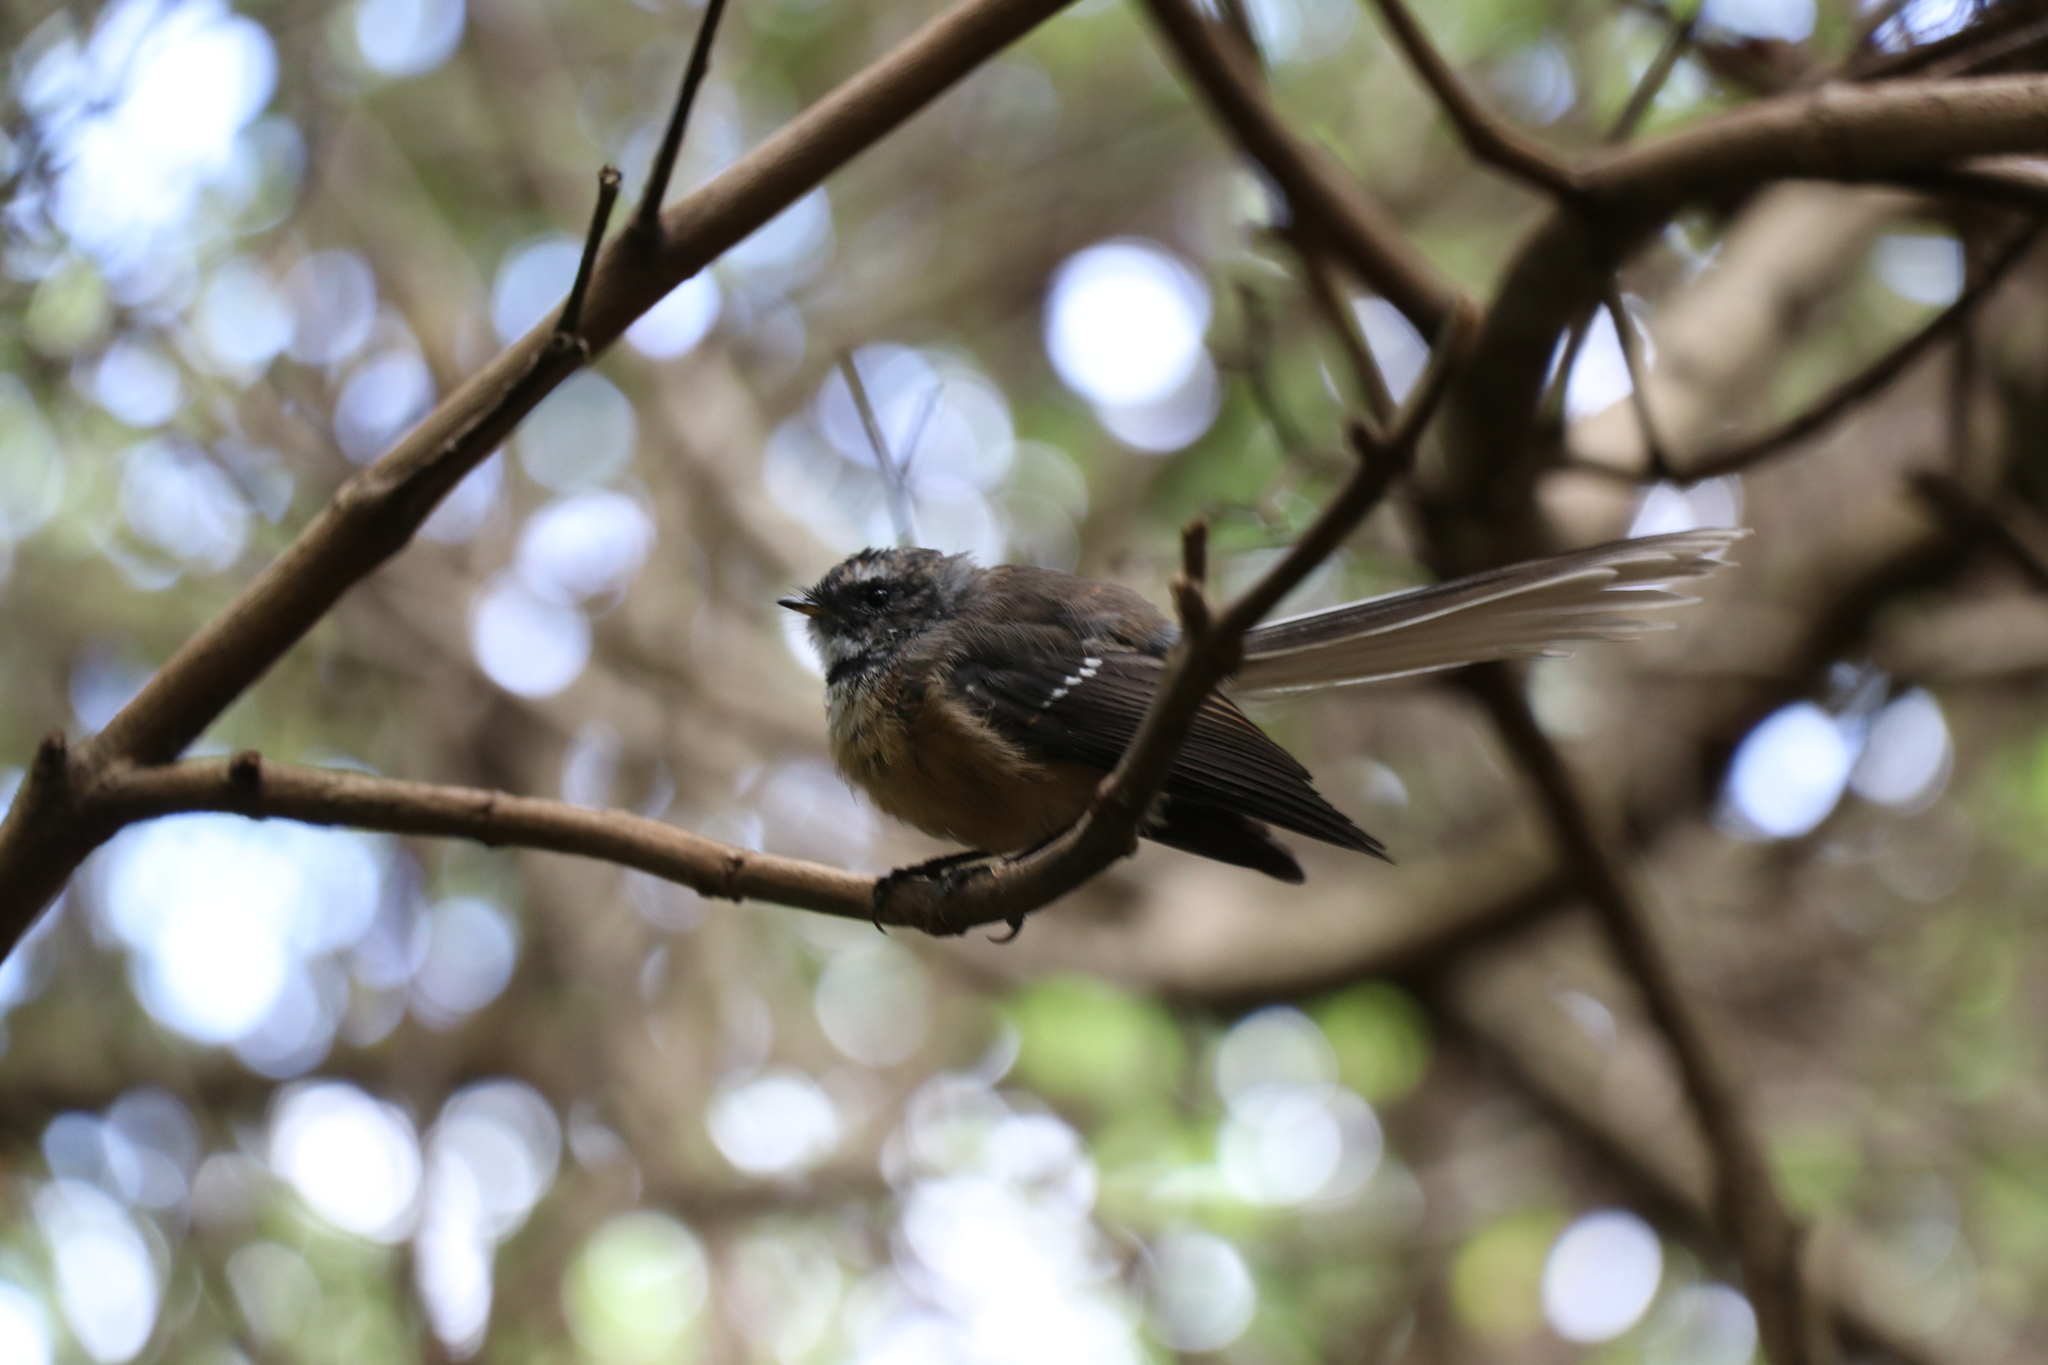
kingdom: Animalia
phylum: Chordata
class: Aves
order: Passeriformes
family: Rhipiduridae
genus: Rhipidura
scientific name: Rhipidura fuliginosa
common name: New zealand fantail
